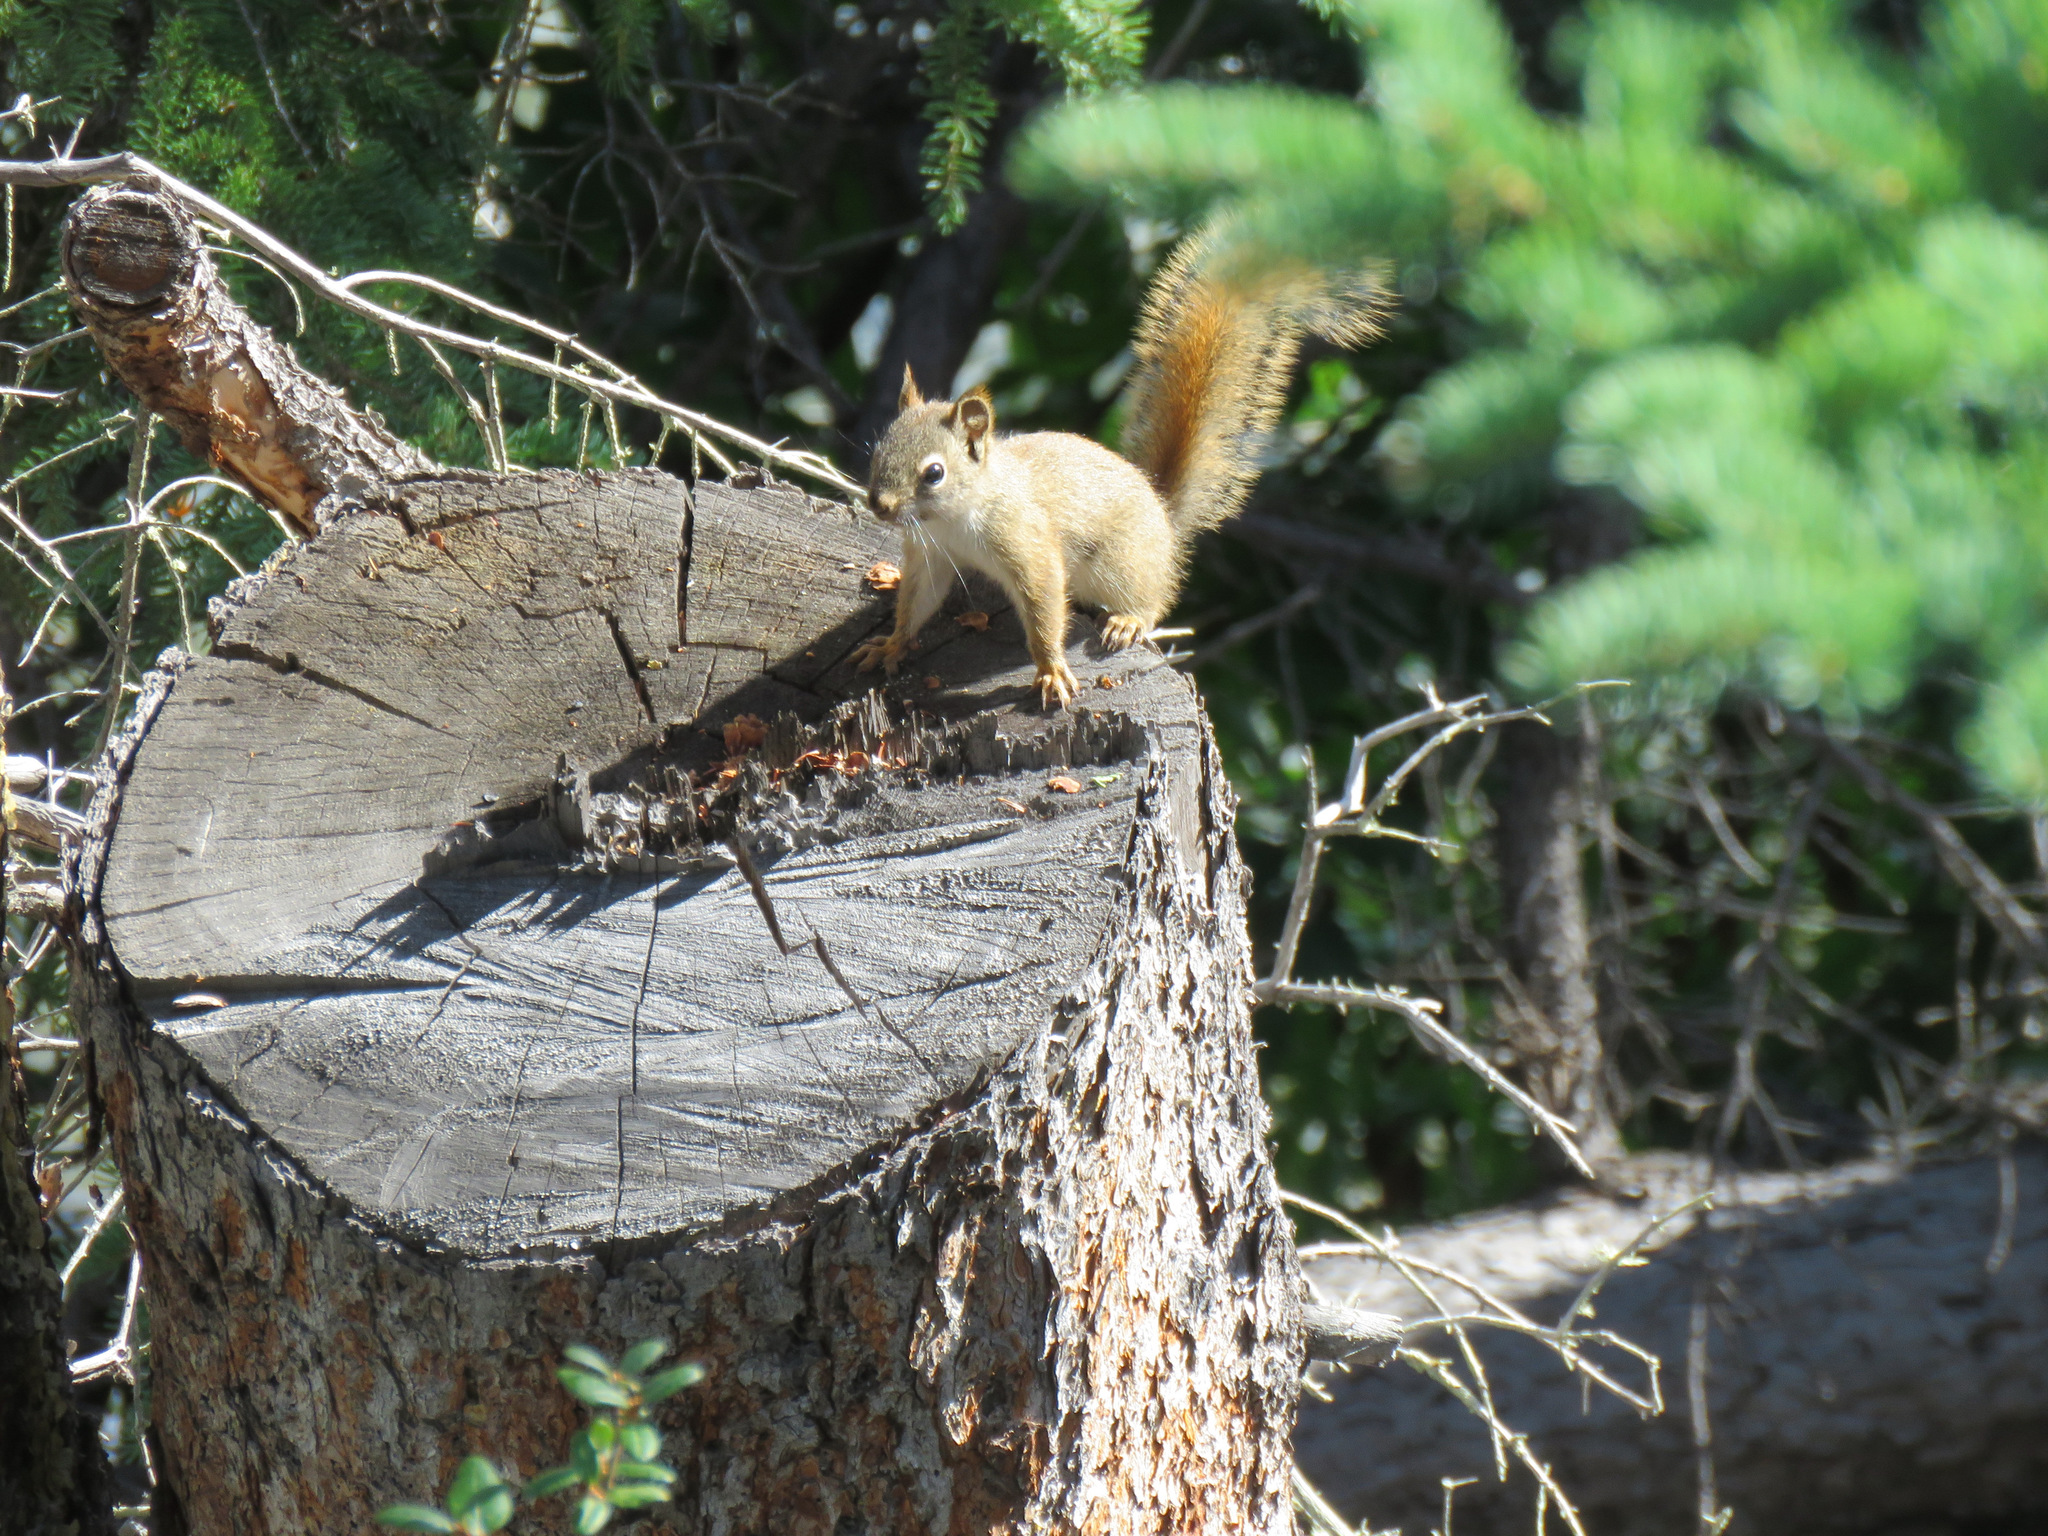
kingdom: Animalia
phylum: Chordata
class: Mammalia
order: Rodentia
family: Sciuridae
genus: Tamiasciurus
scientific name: Tamiasciurus hudsonicus
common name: Red squirrel
